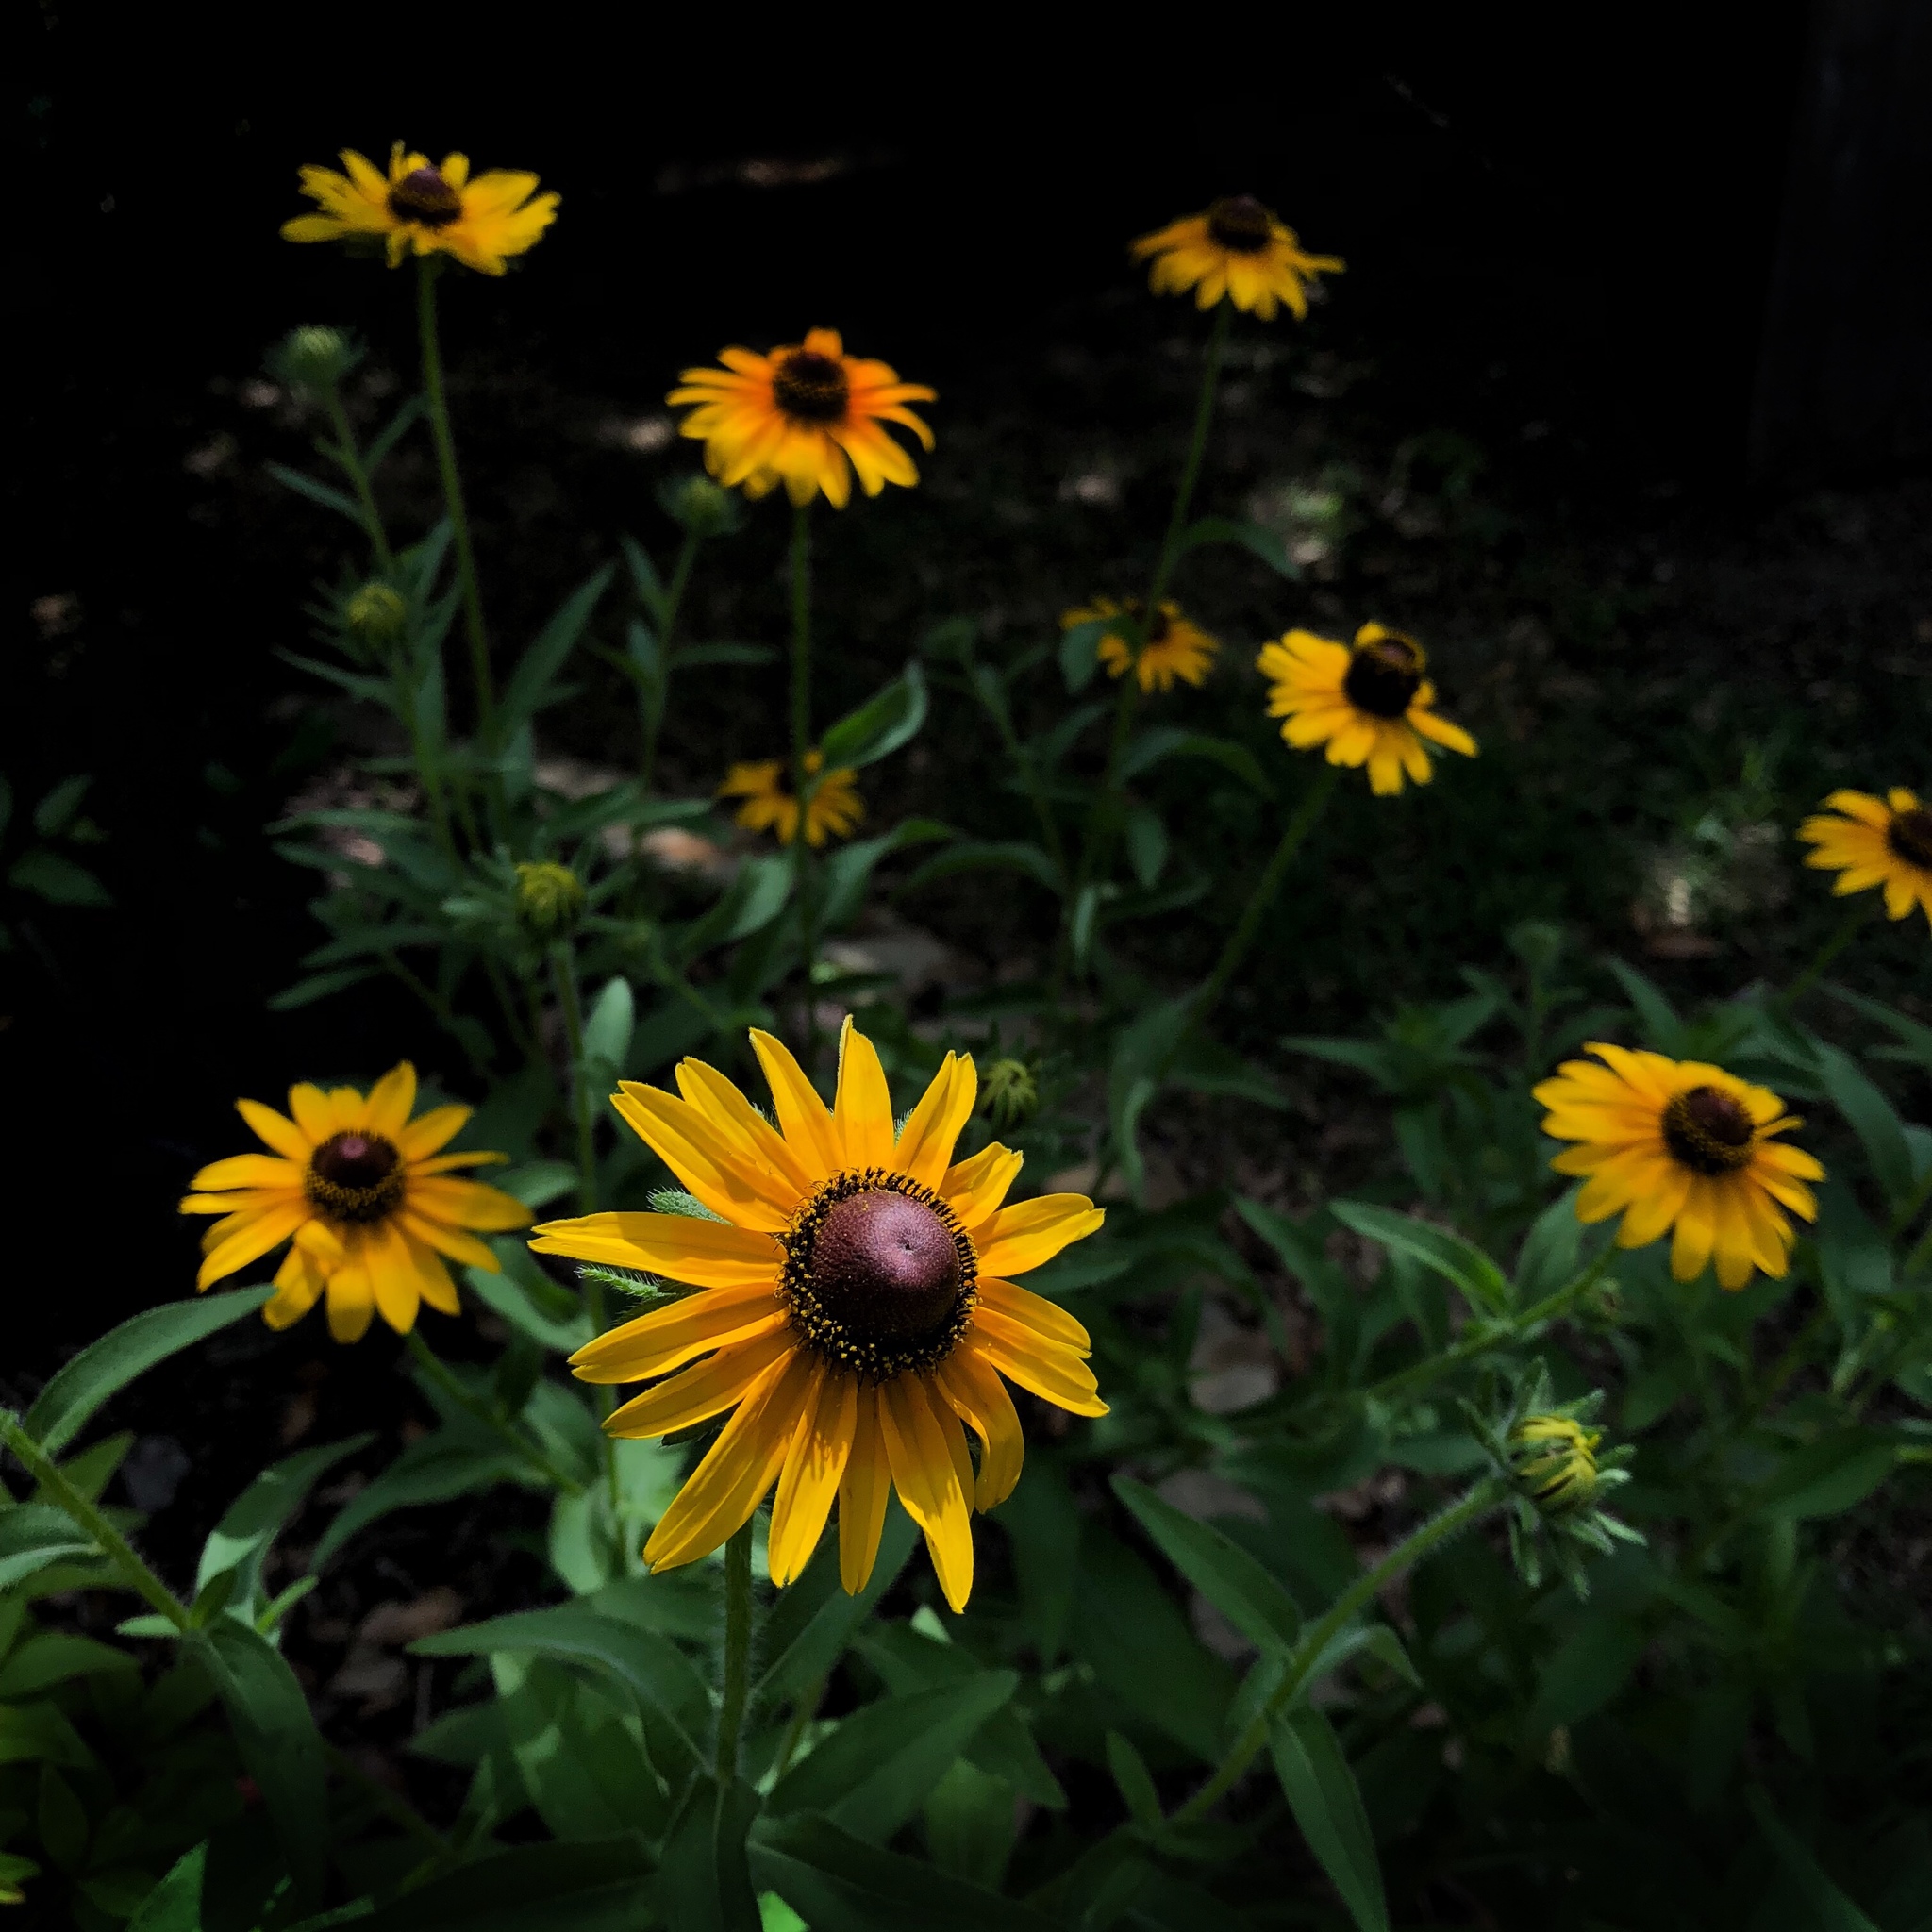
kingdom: Plantae
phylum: Tracheophyta
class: Magnoliopsida
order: Asterales
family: Asteraceae
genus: Rudbeckia
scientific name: Rudbeckia hirta
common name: Black-eyed-susan
